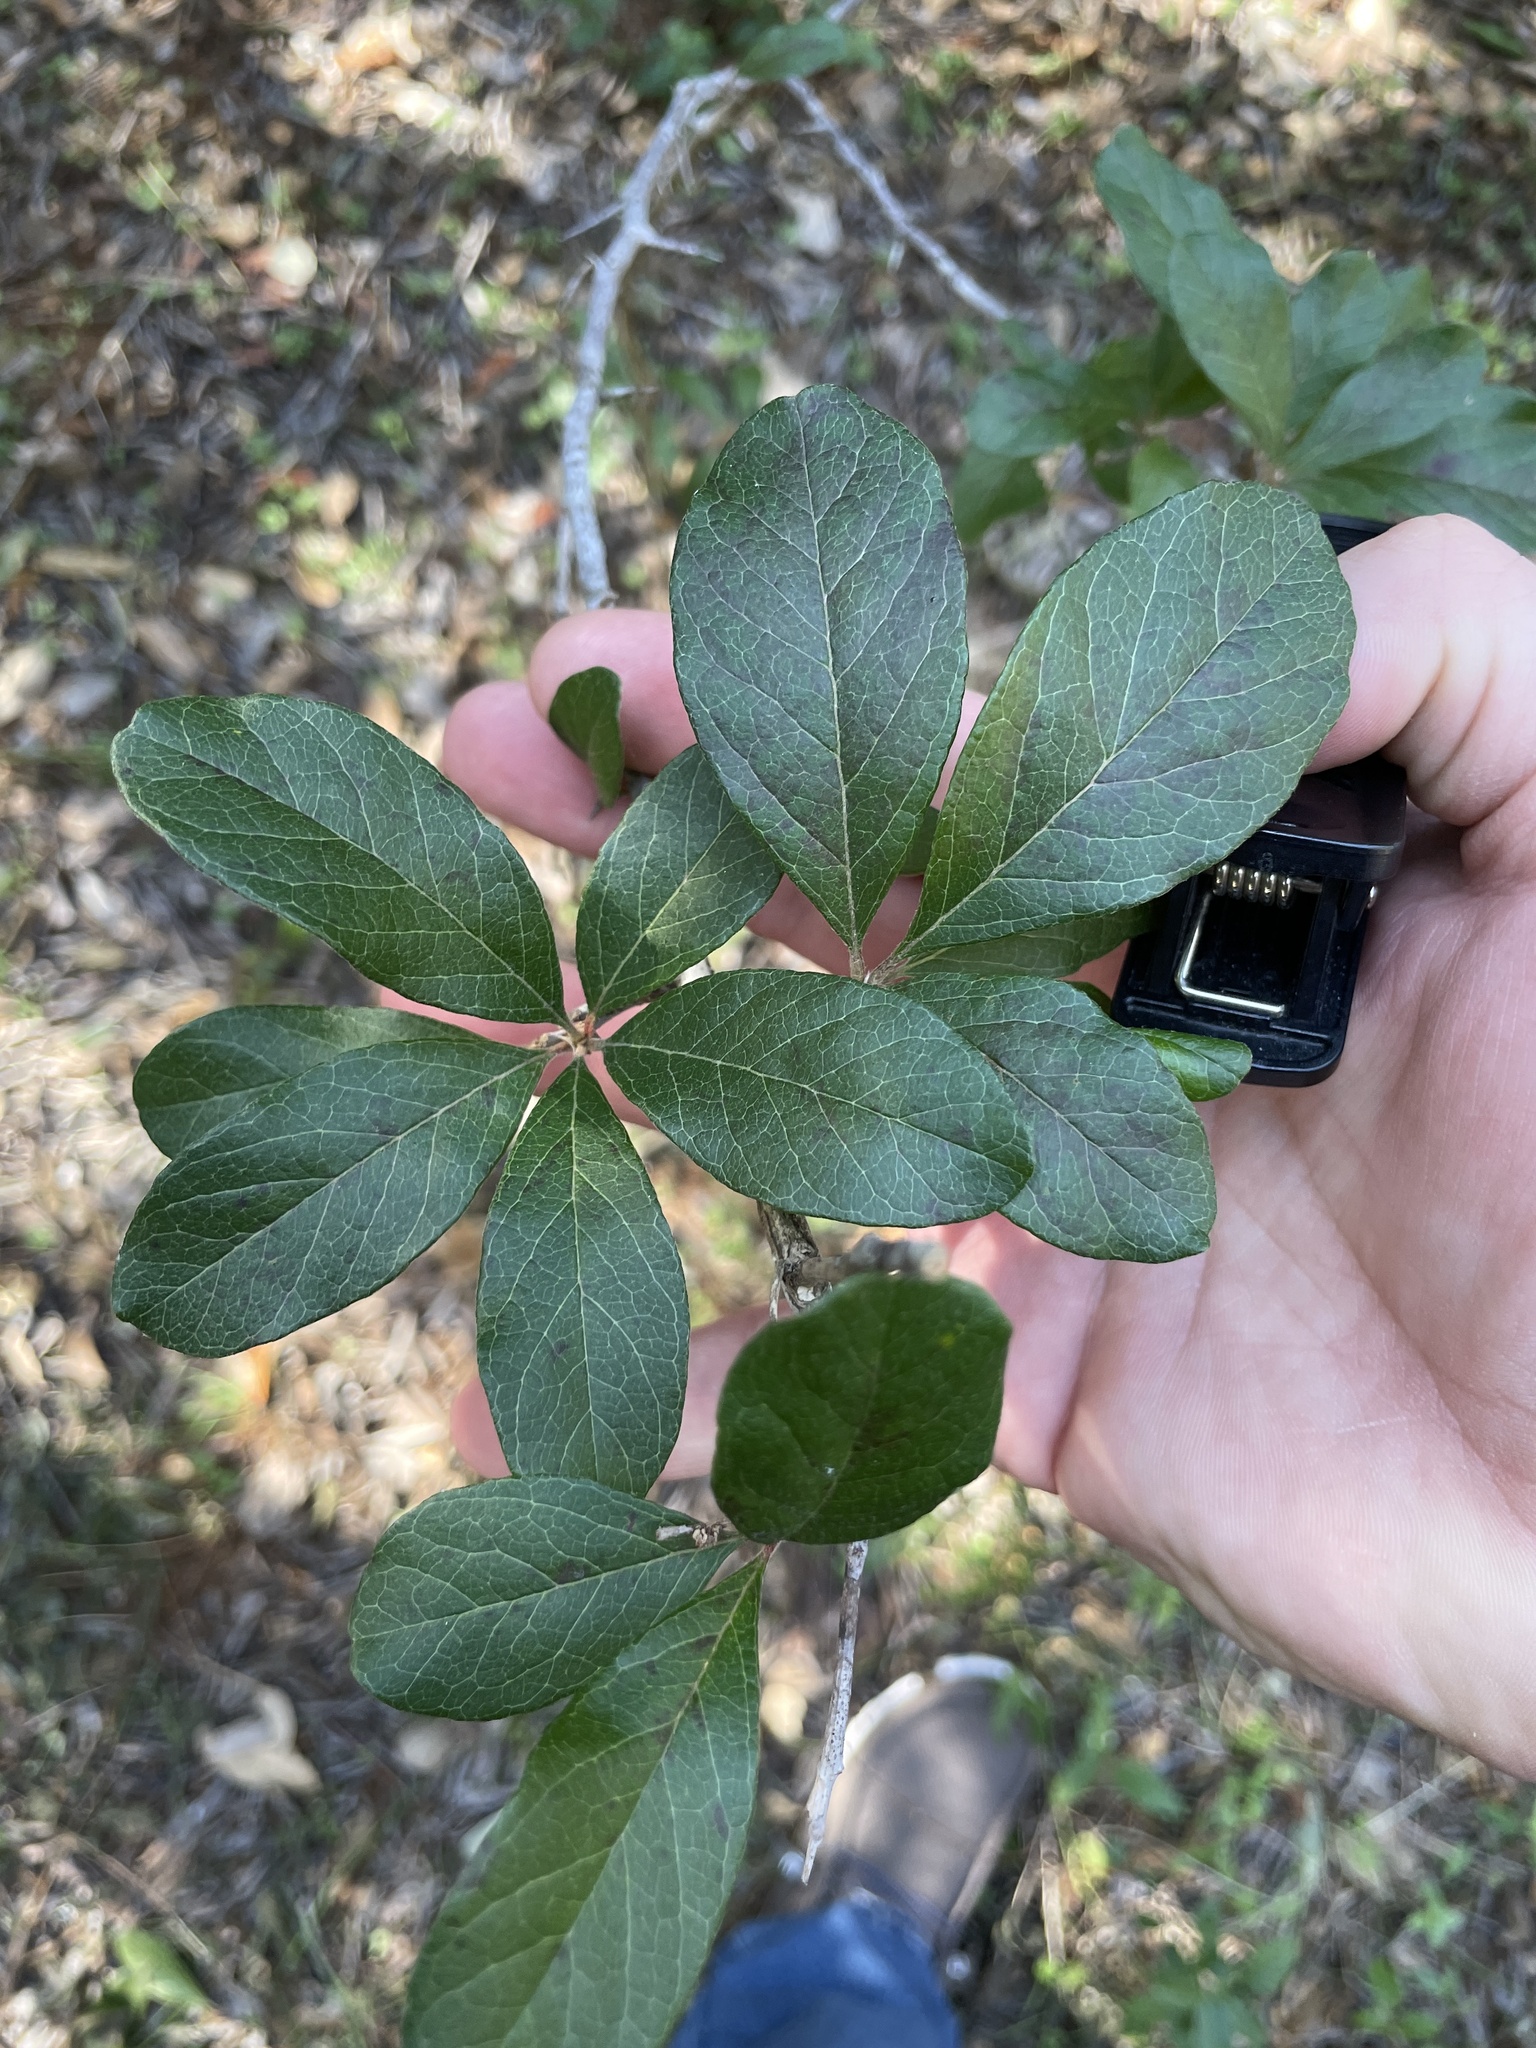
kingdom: Plantae
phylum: Tracheophyta
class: Magnoliopsida
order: Ericales
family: Sapotaceae
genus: Sideroxylon
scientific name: Sideroxylon lanuginosum
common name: Chittamwood
